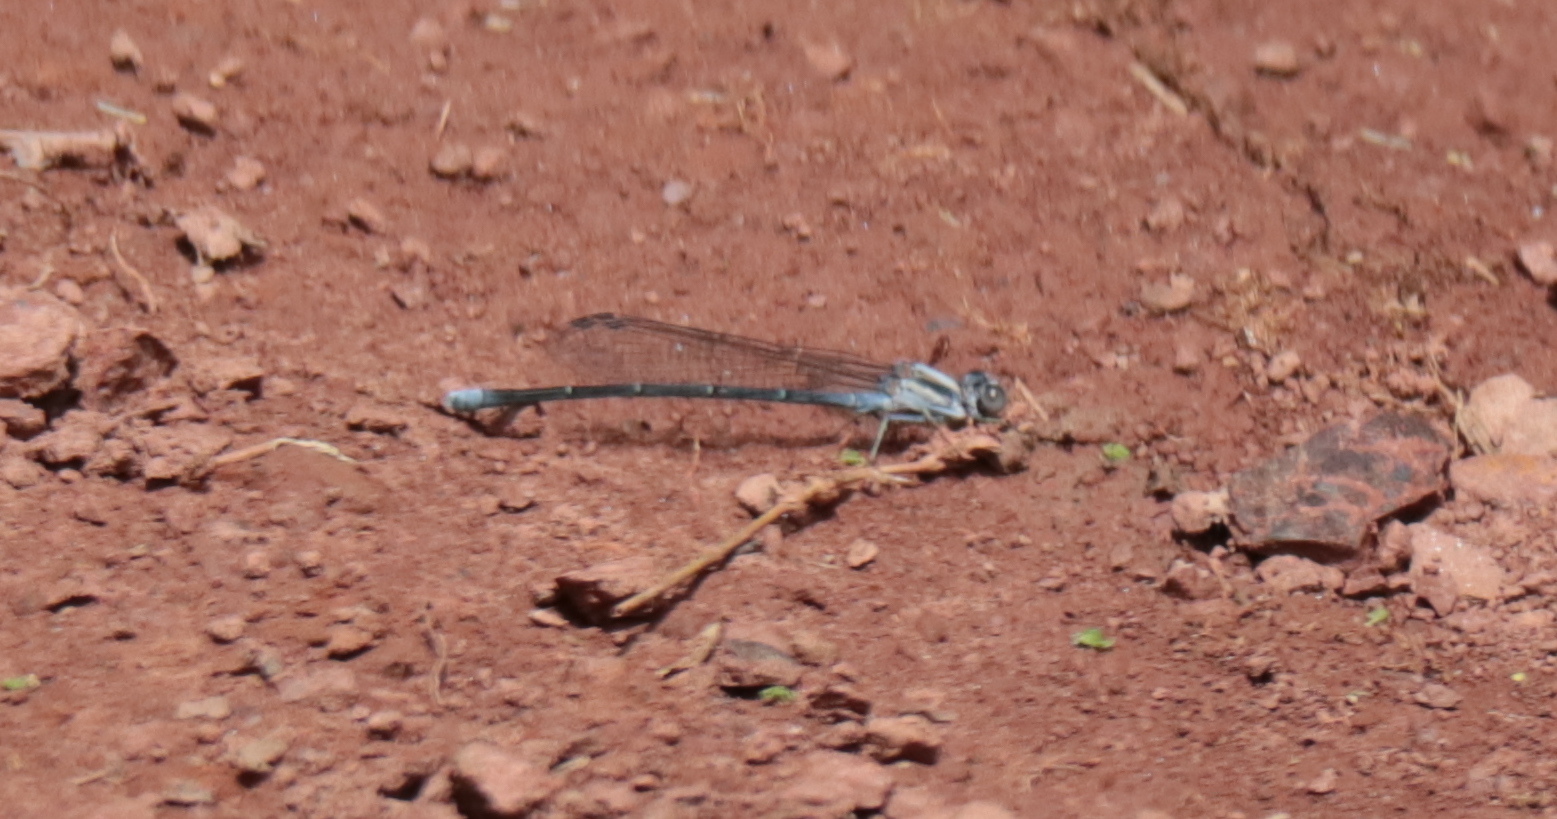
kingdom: Animalia
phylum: Arthropoda
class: Insecta
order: Odonata
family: Coenagrionidae
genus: Argia
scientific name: Argia moesta
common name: Powdered dancer
